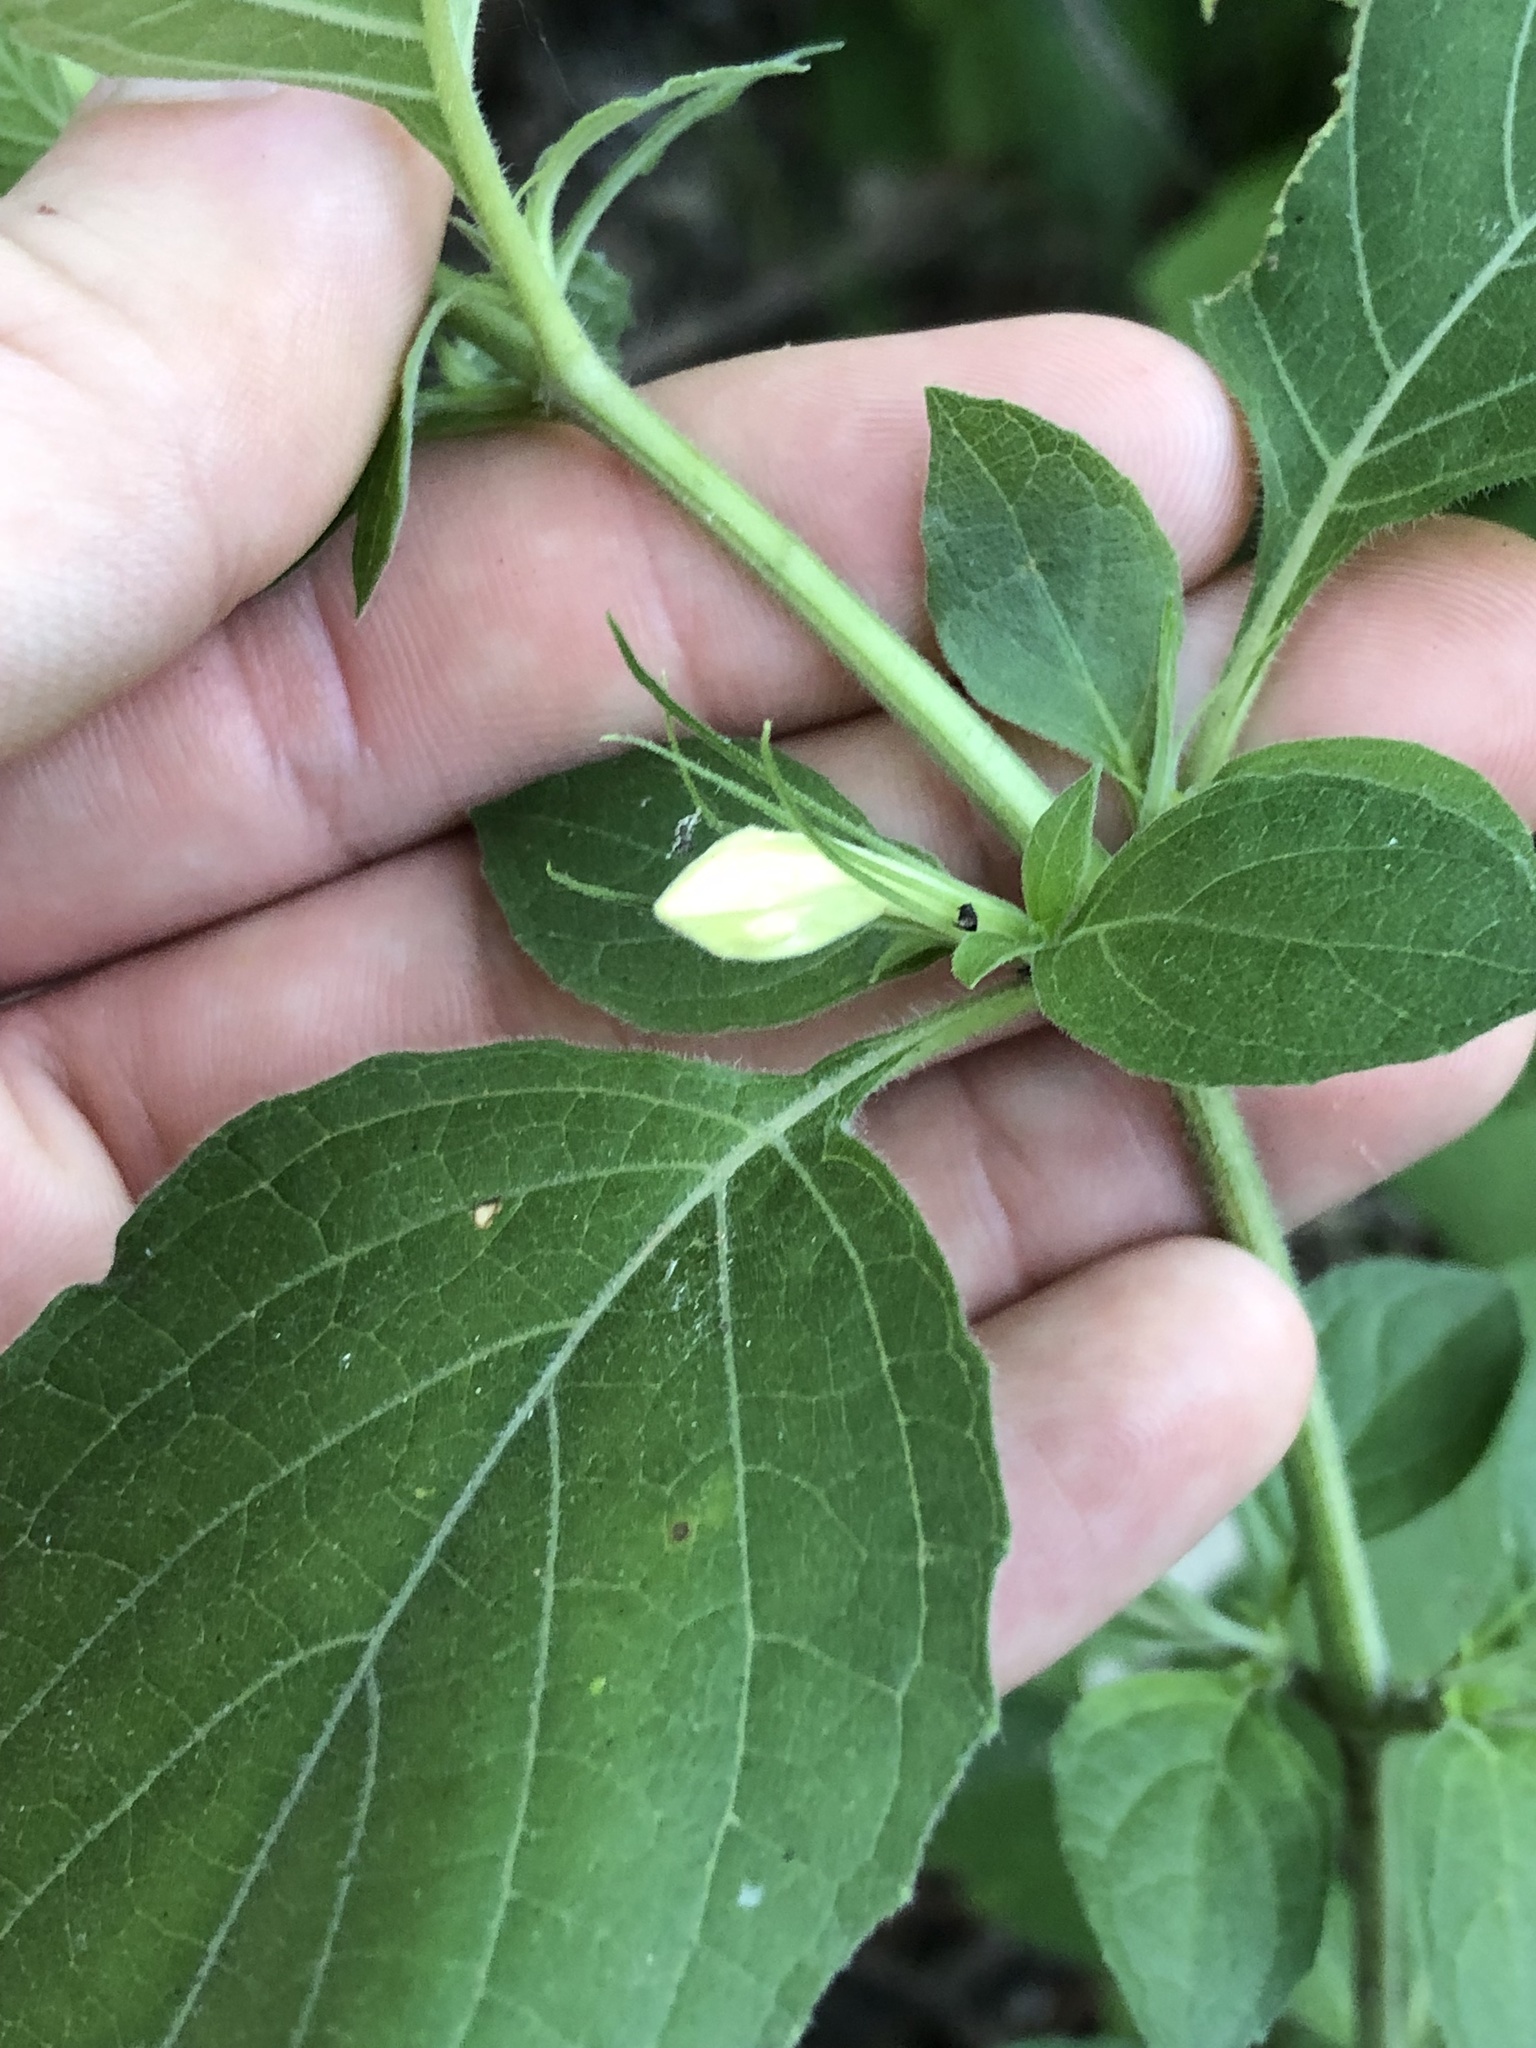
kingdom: Plantae
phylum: Tracheophyta
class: Magnoliopsida
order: Lamiales
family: Acanthaceae
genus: Ruellia
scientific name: Ruellia drummondiana
